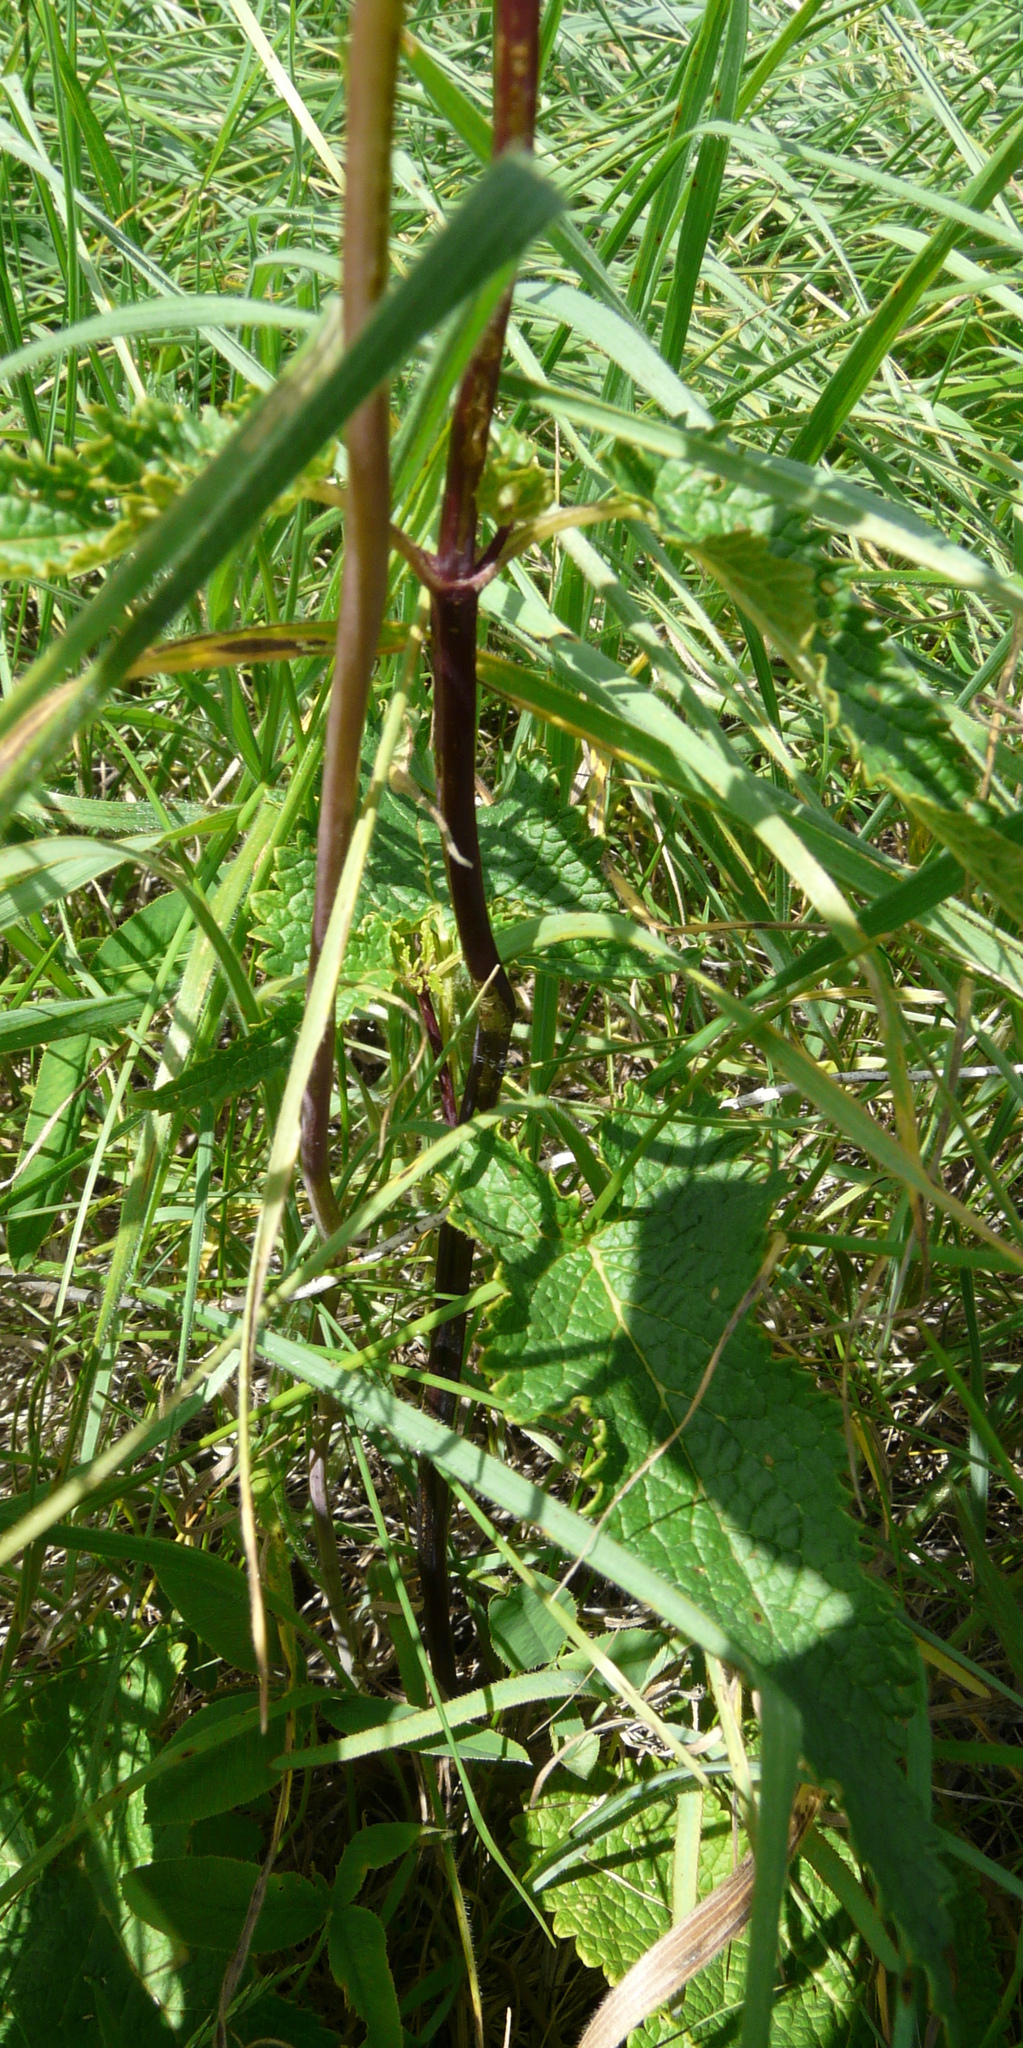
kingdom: Plantae
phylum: Tracheophyta
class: Magnoliopsida
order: Lamiales
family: Lamiaceae
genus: Phlomoides
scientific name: Phlomoides tuberosa
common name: Tuberous jerusalem sage
